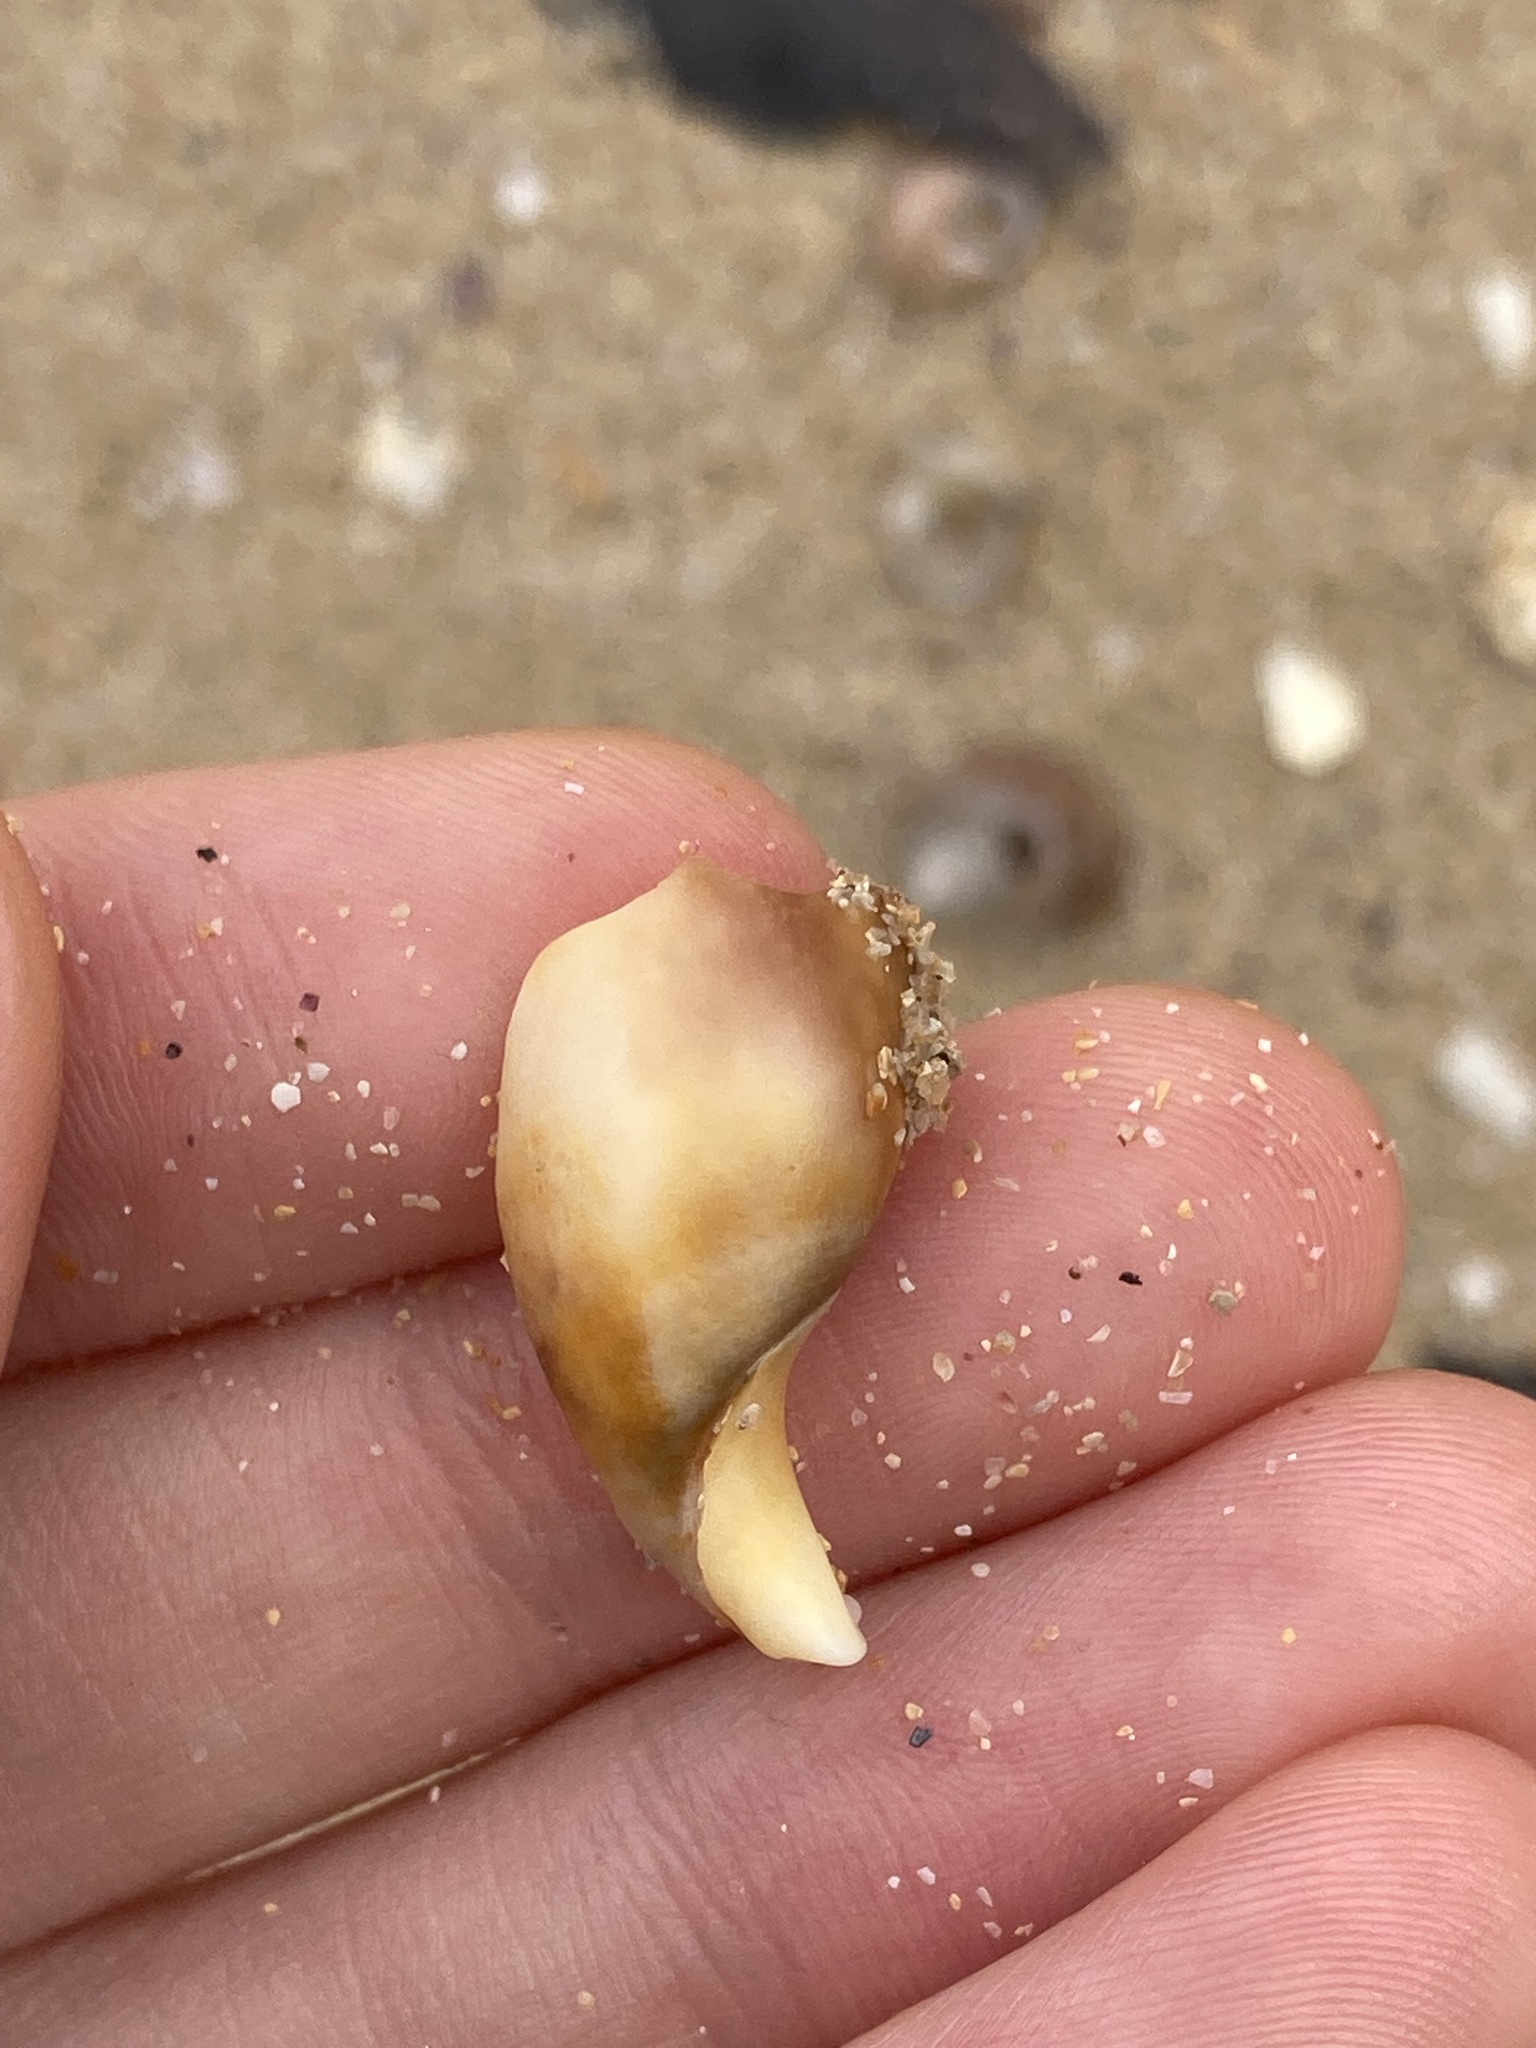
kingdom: Animalia
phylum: Mollusca
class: Gastropoda
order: Cephalaspidea
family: Bullidae
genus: Bulla
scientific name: Bulla quoyii
